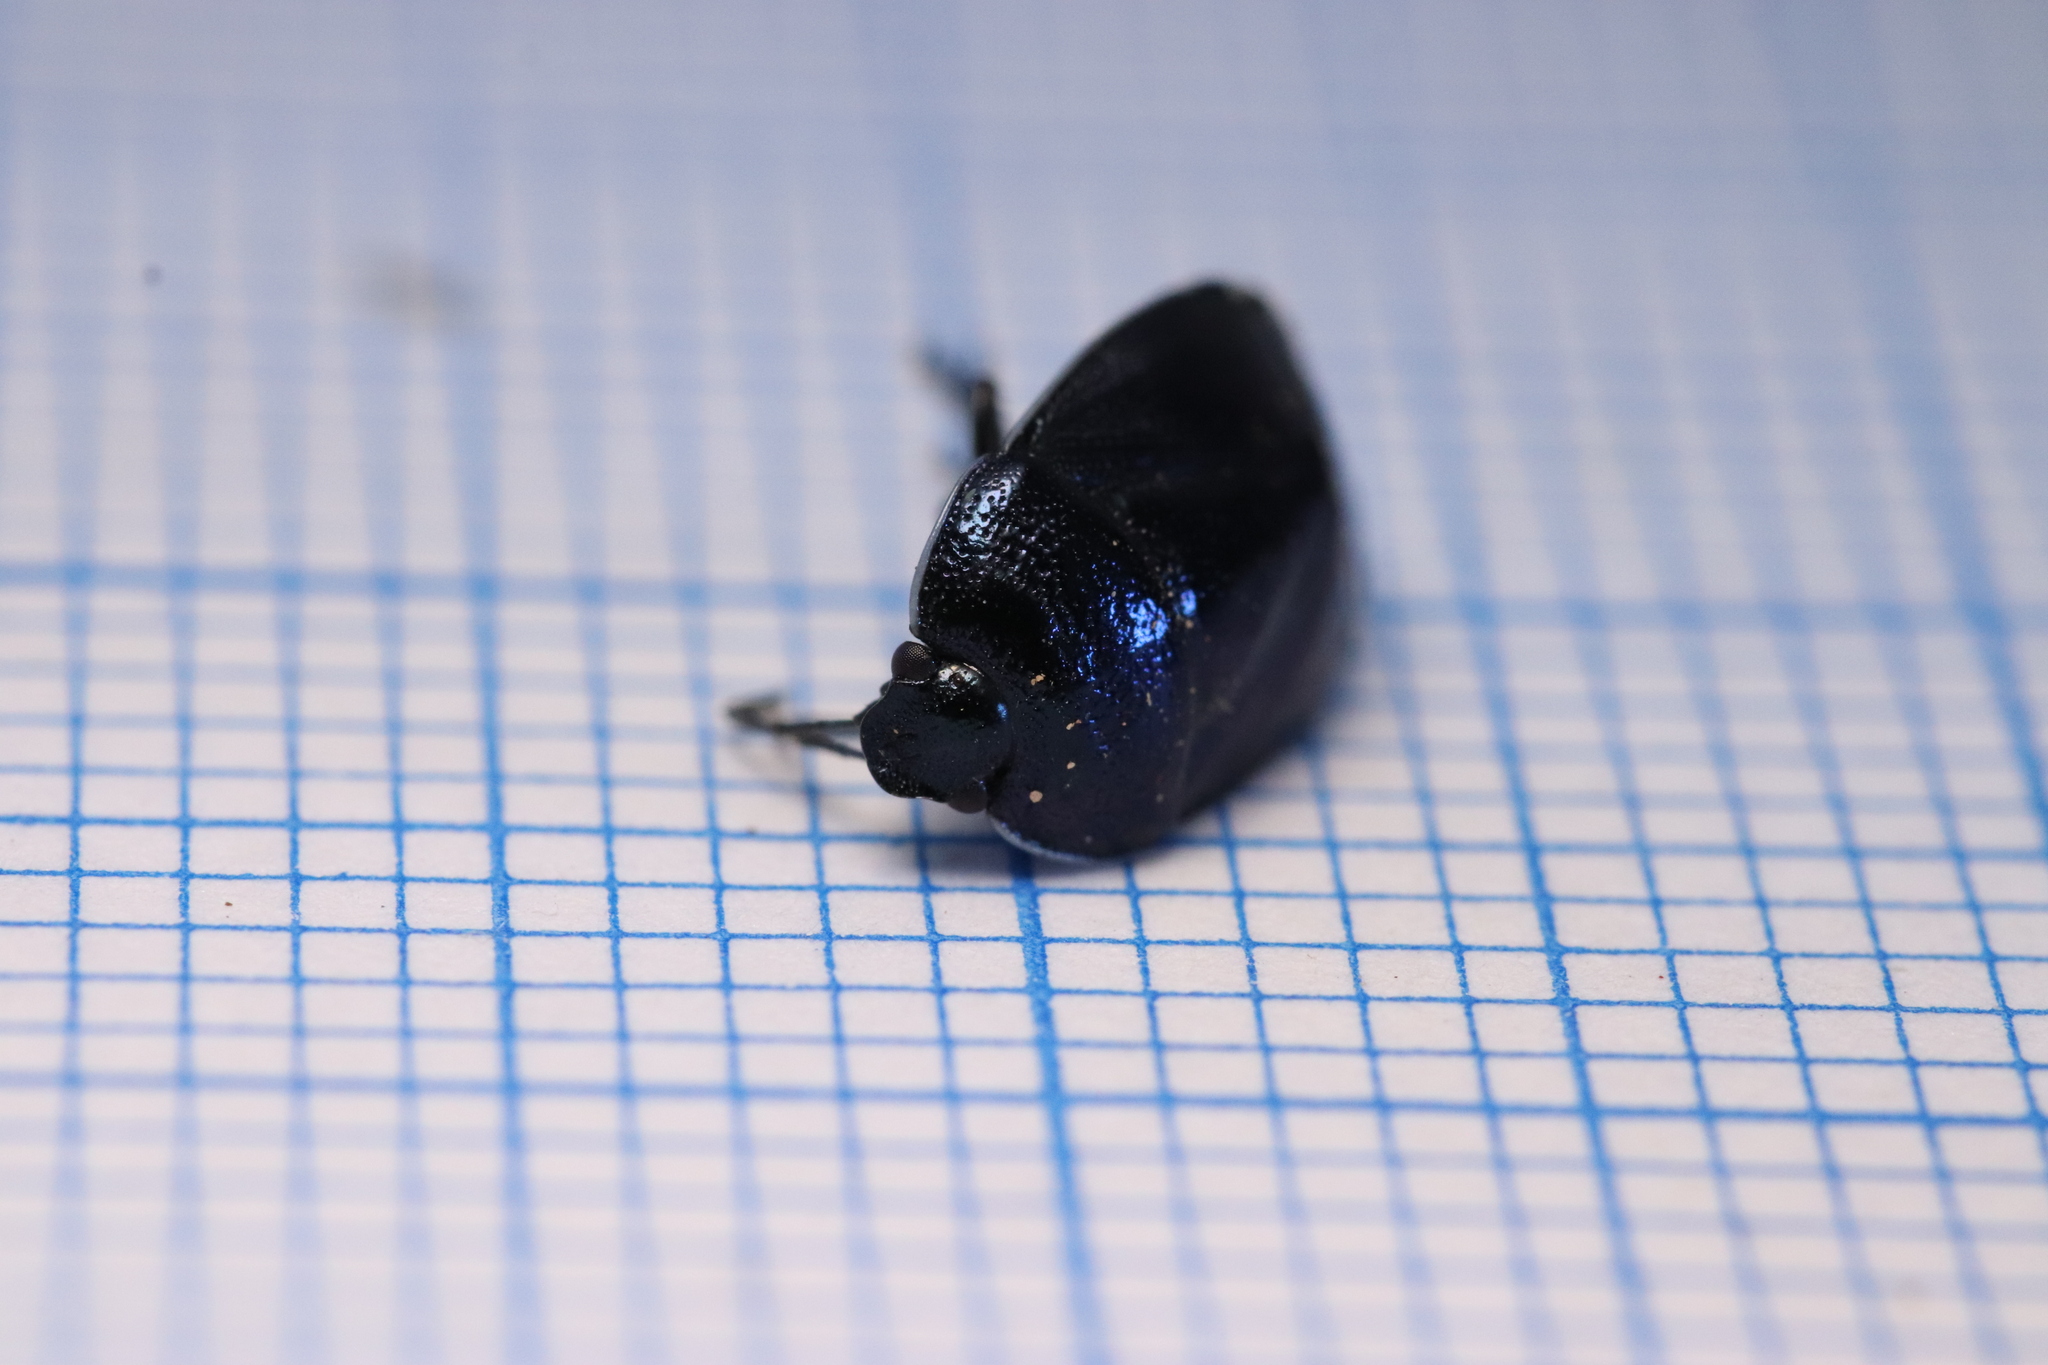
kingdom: Animalia
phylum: Arthropoda
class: Insecta
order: Hemiptera
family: Cydnidae
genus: Canthophorus
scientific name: Canthophorus melanopterus
